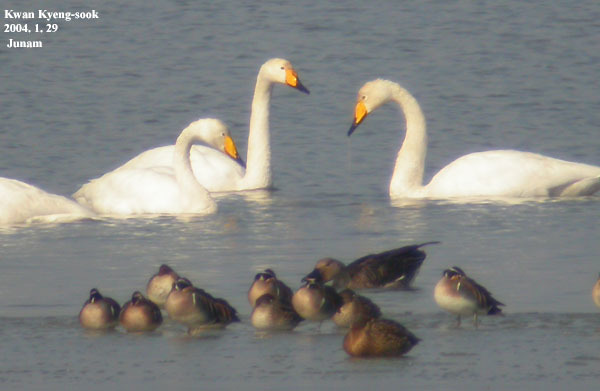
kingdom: Animalia
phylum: Chordata
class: Aves
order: Anseriformes
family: Anatidae
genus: Cygnus
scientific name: Cygnus cygnus
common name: Whooper swan
